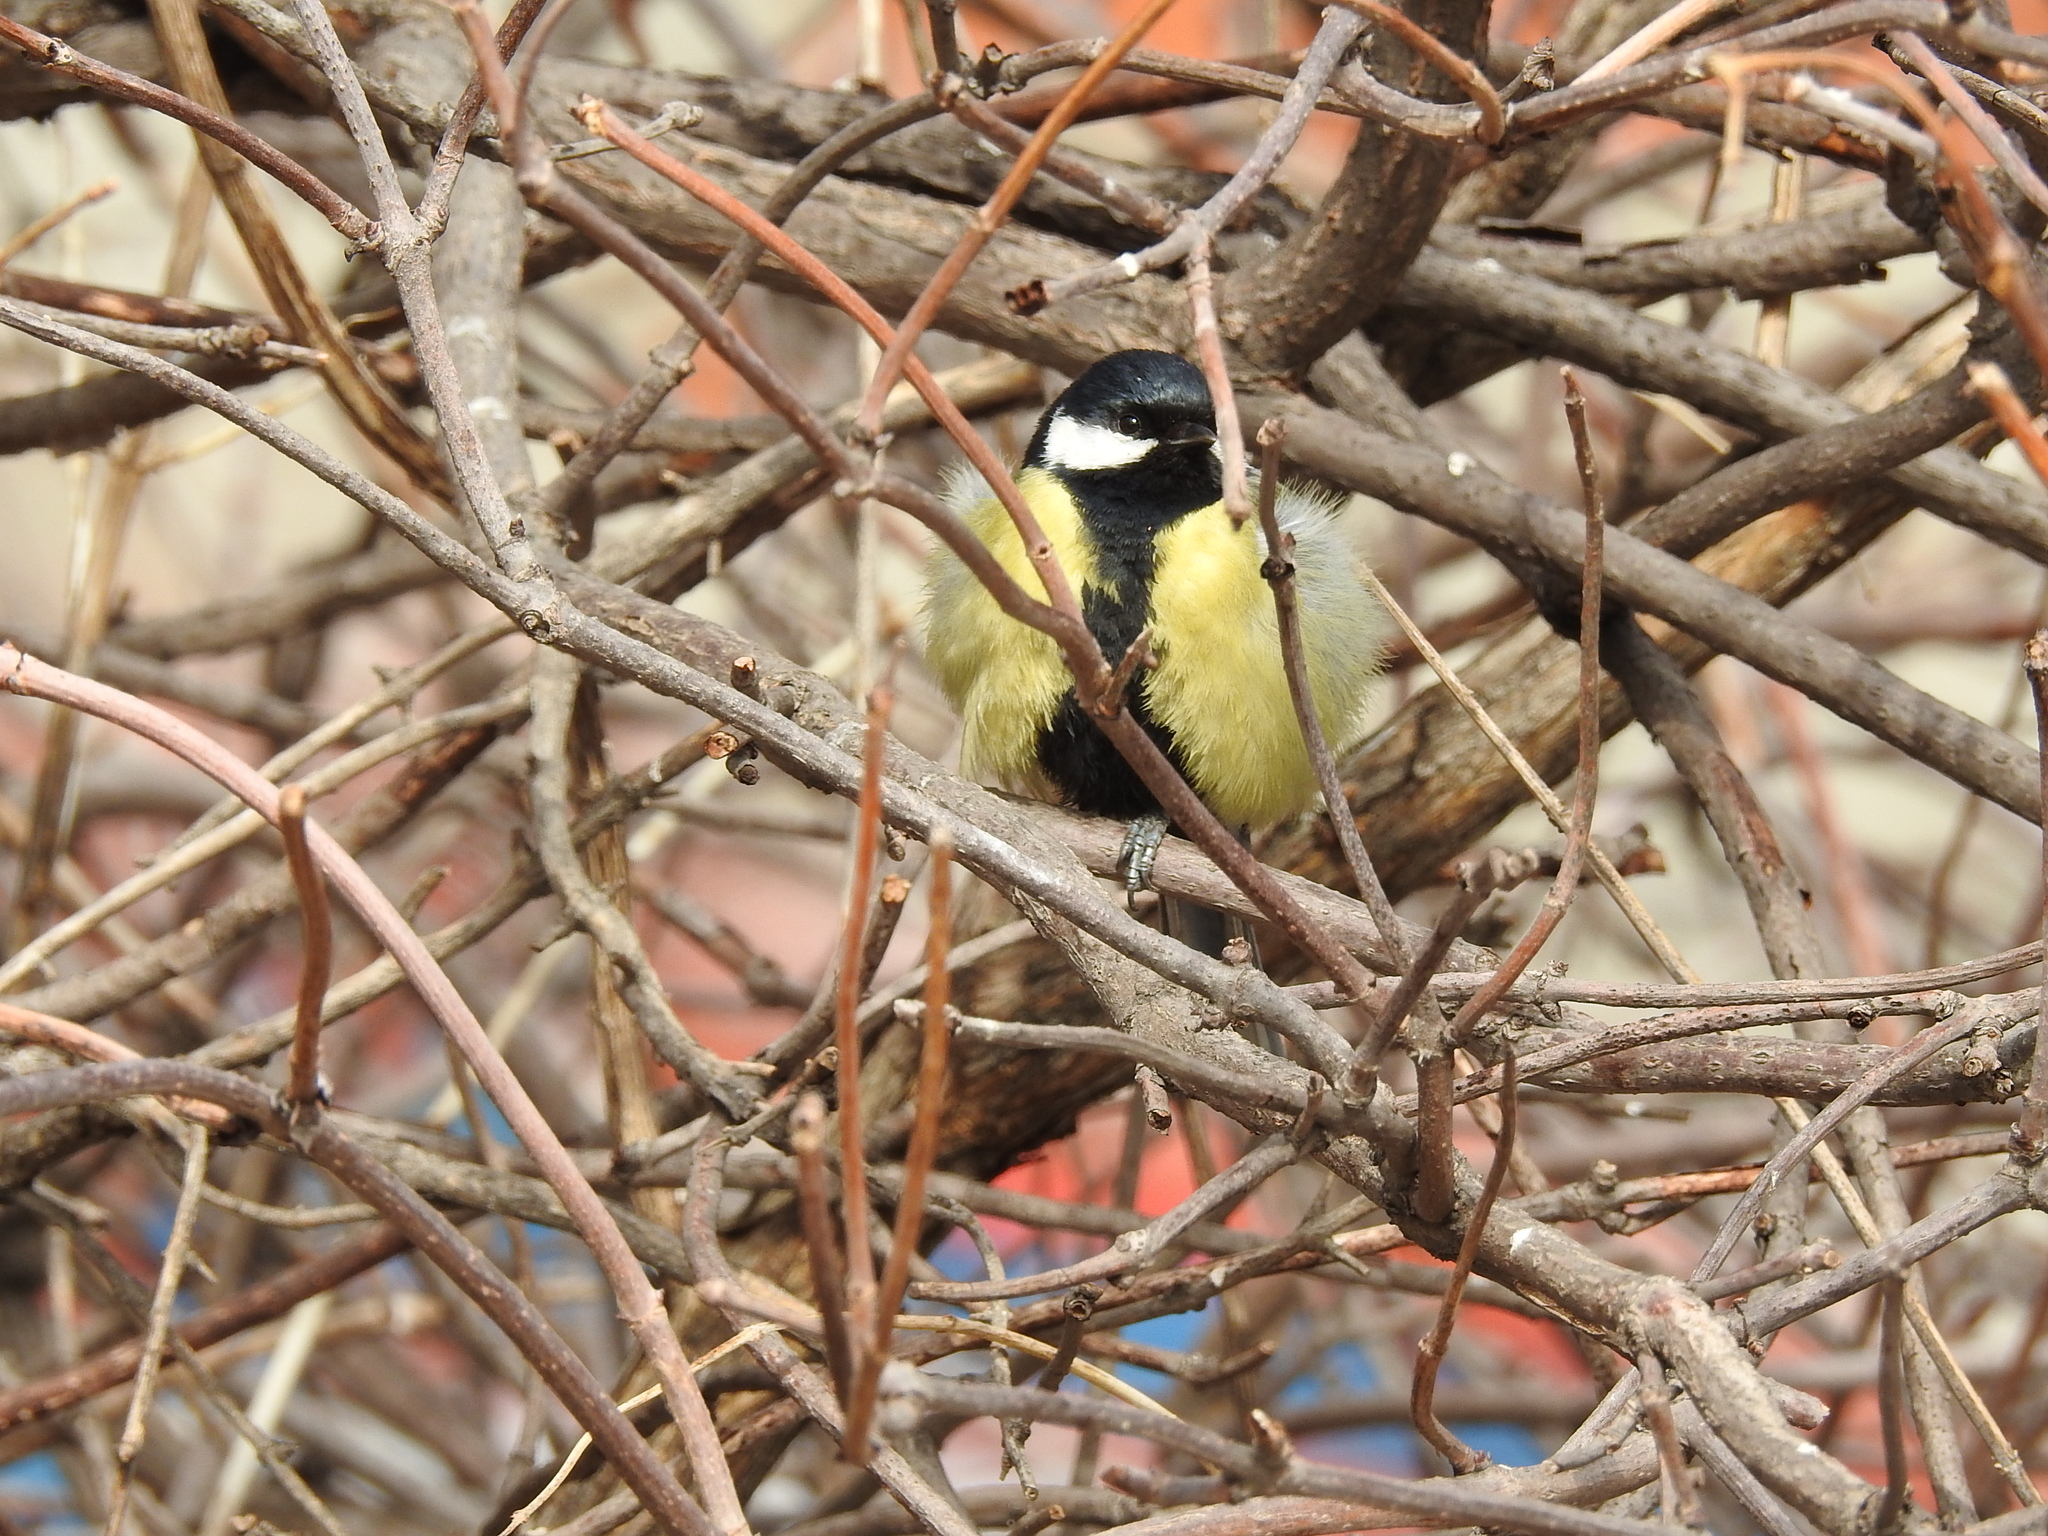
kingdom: Animalia
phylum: Chordata
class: Aves
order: Passeriformes
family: Paridae
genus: Parus
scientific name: Parus major
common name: Great tit
